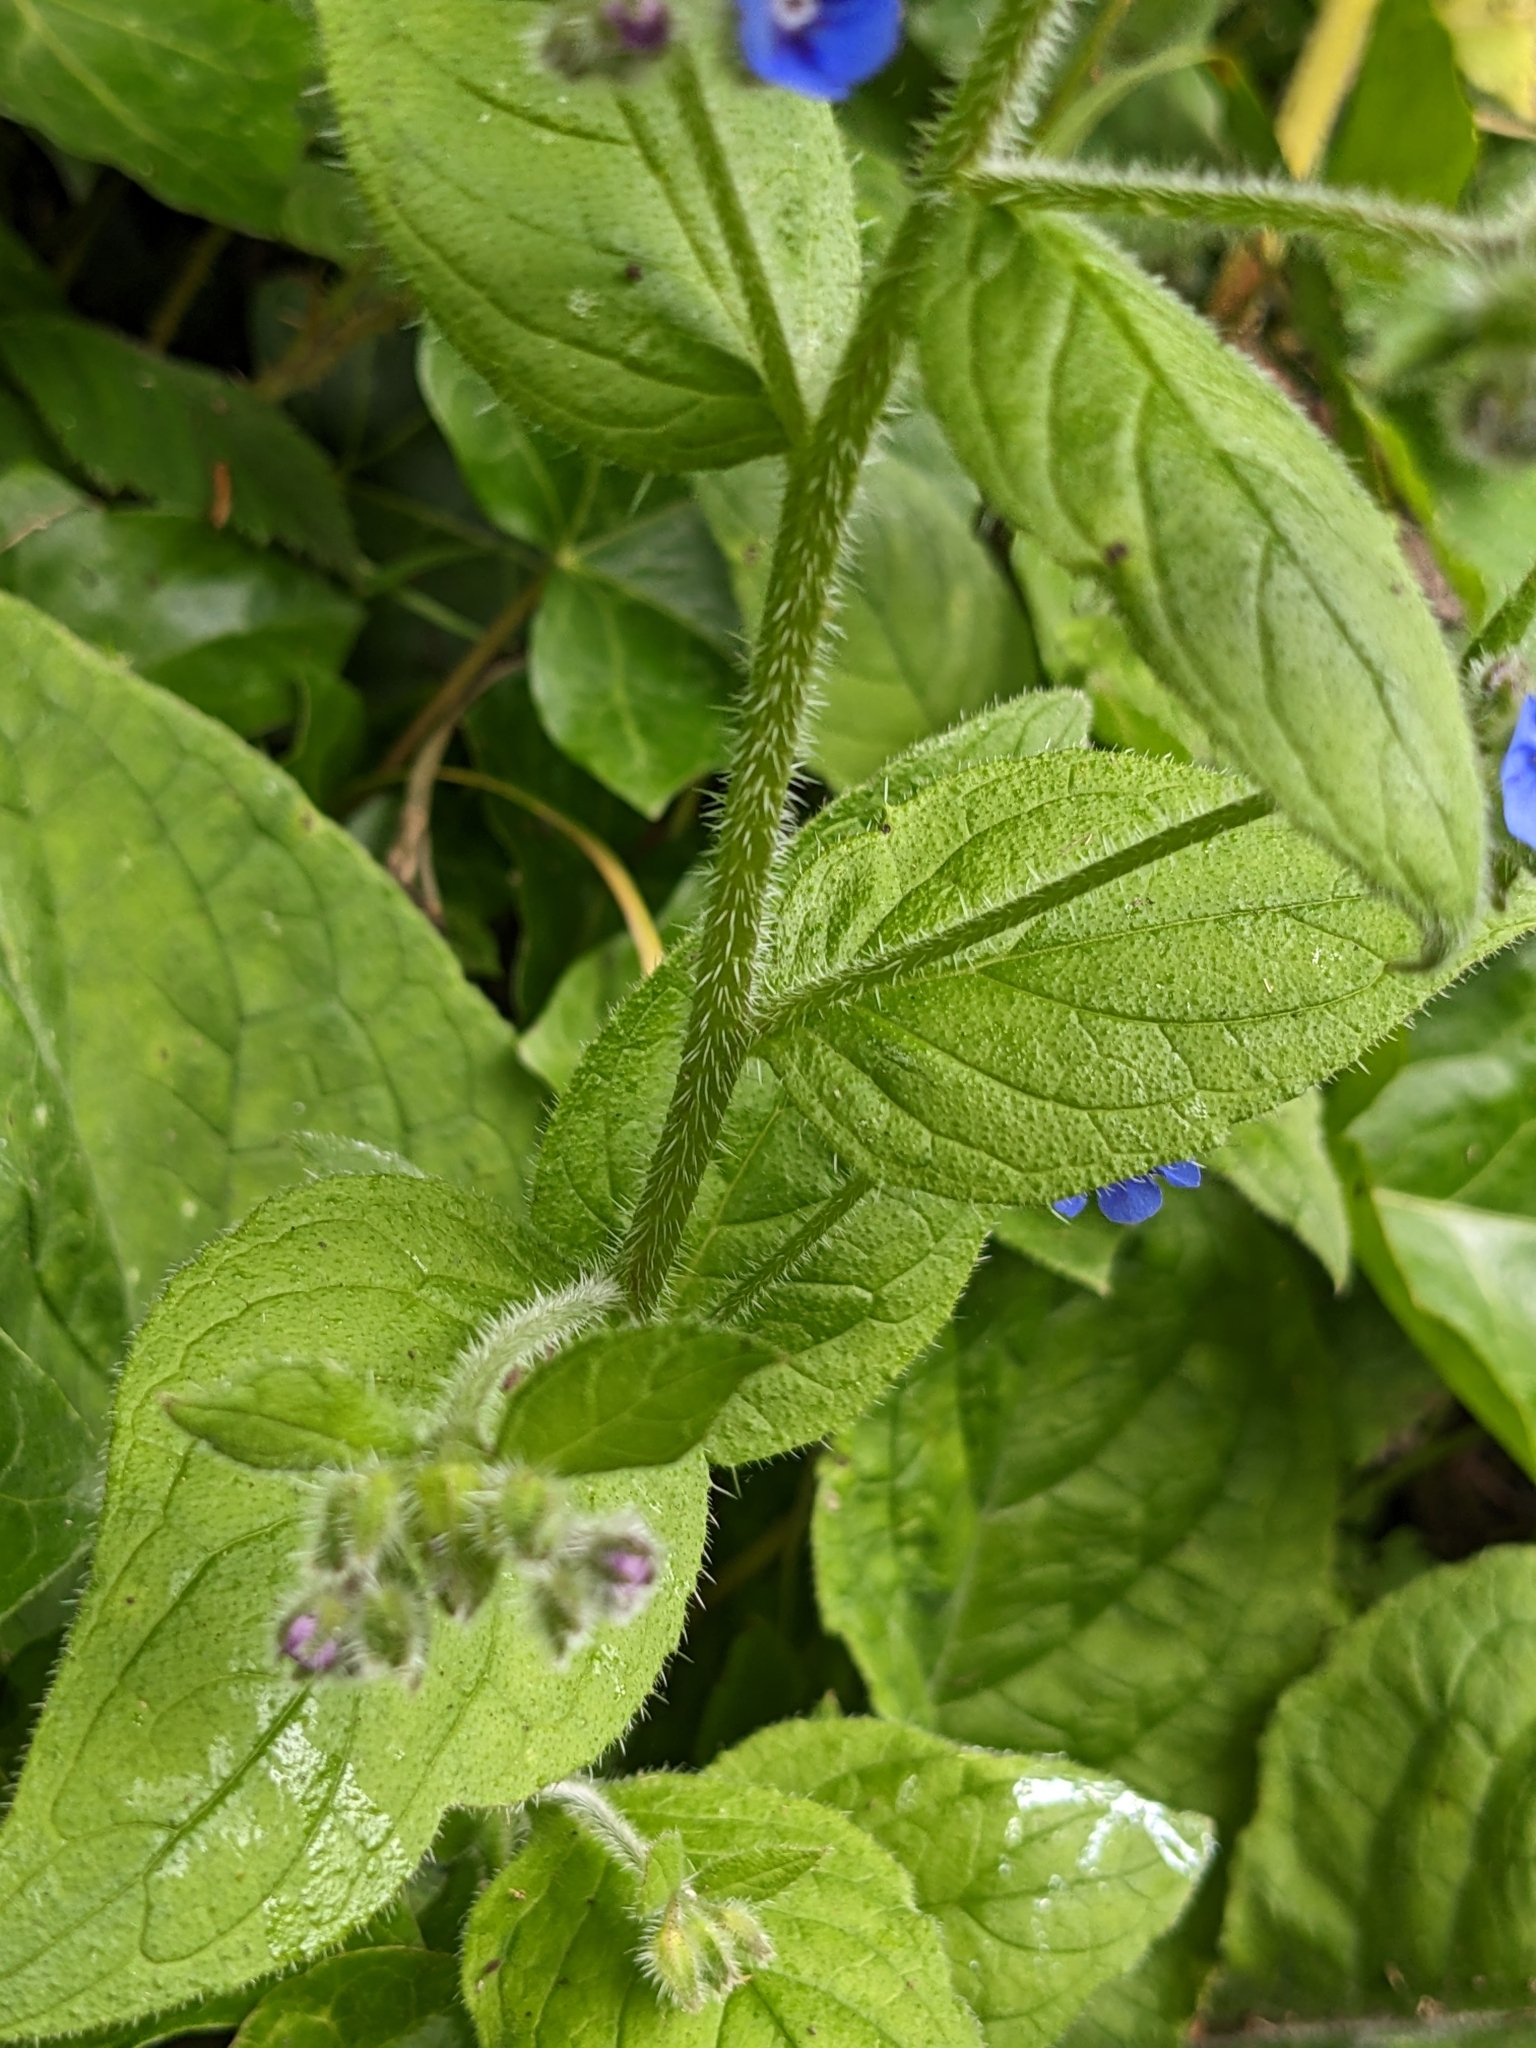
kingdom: Plantae
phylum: Tracheophyta
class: Magnoliopsida
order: Boraginales
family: Boraginaceae
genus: Pentaglottis
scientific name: Pentaglottis sempervirens
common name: Green alkanet
